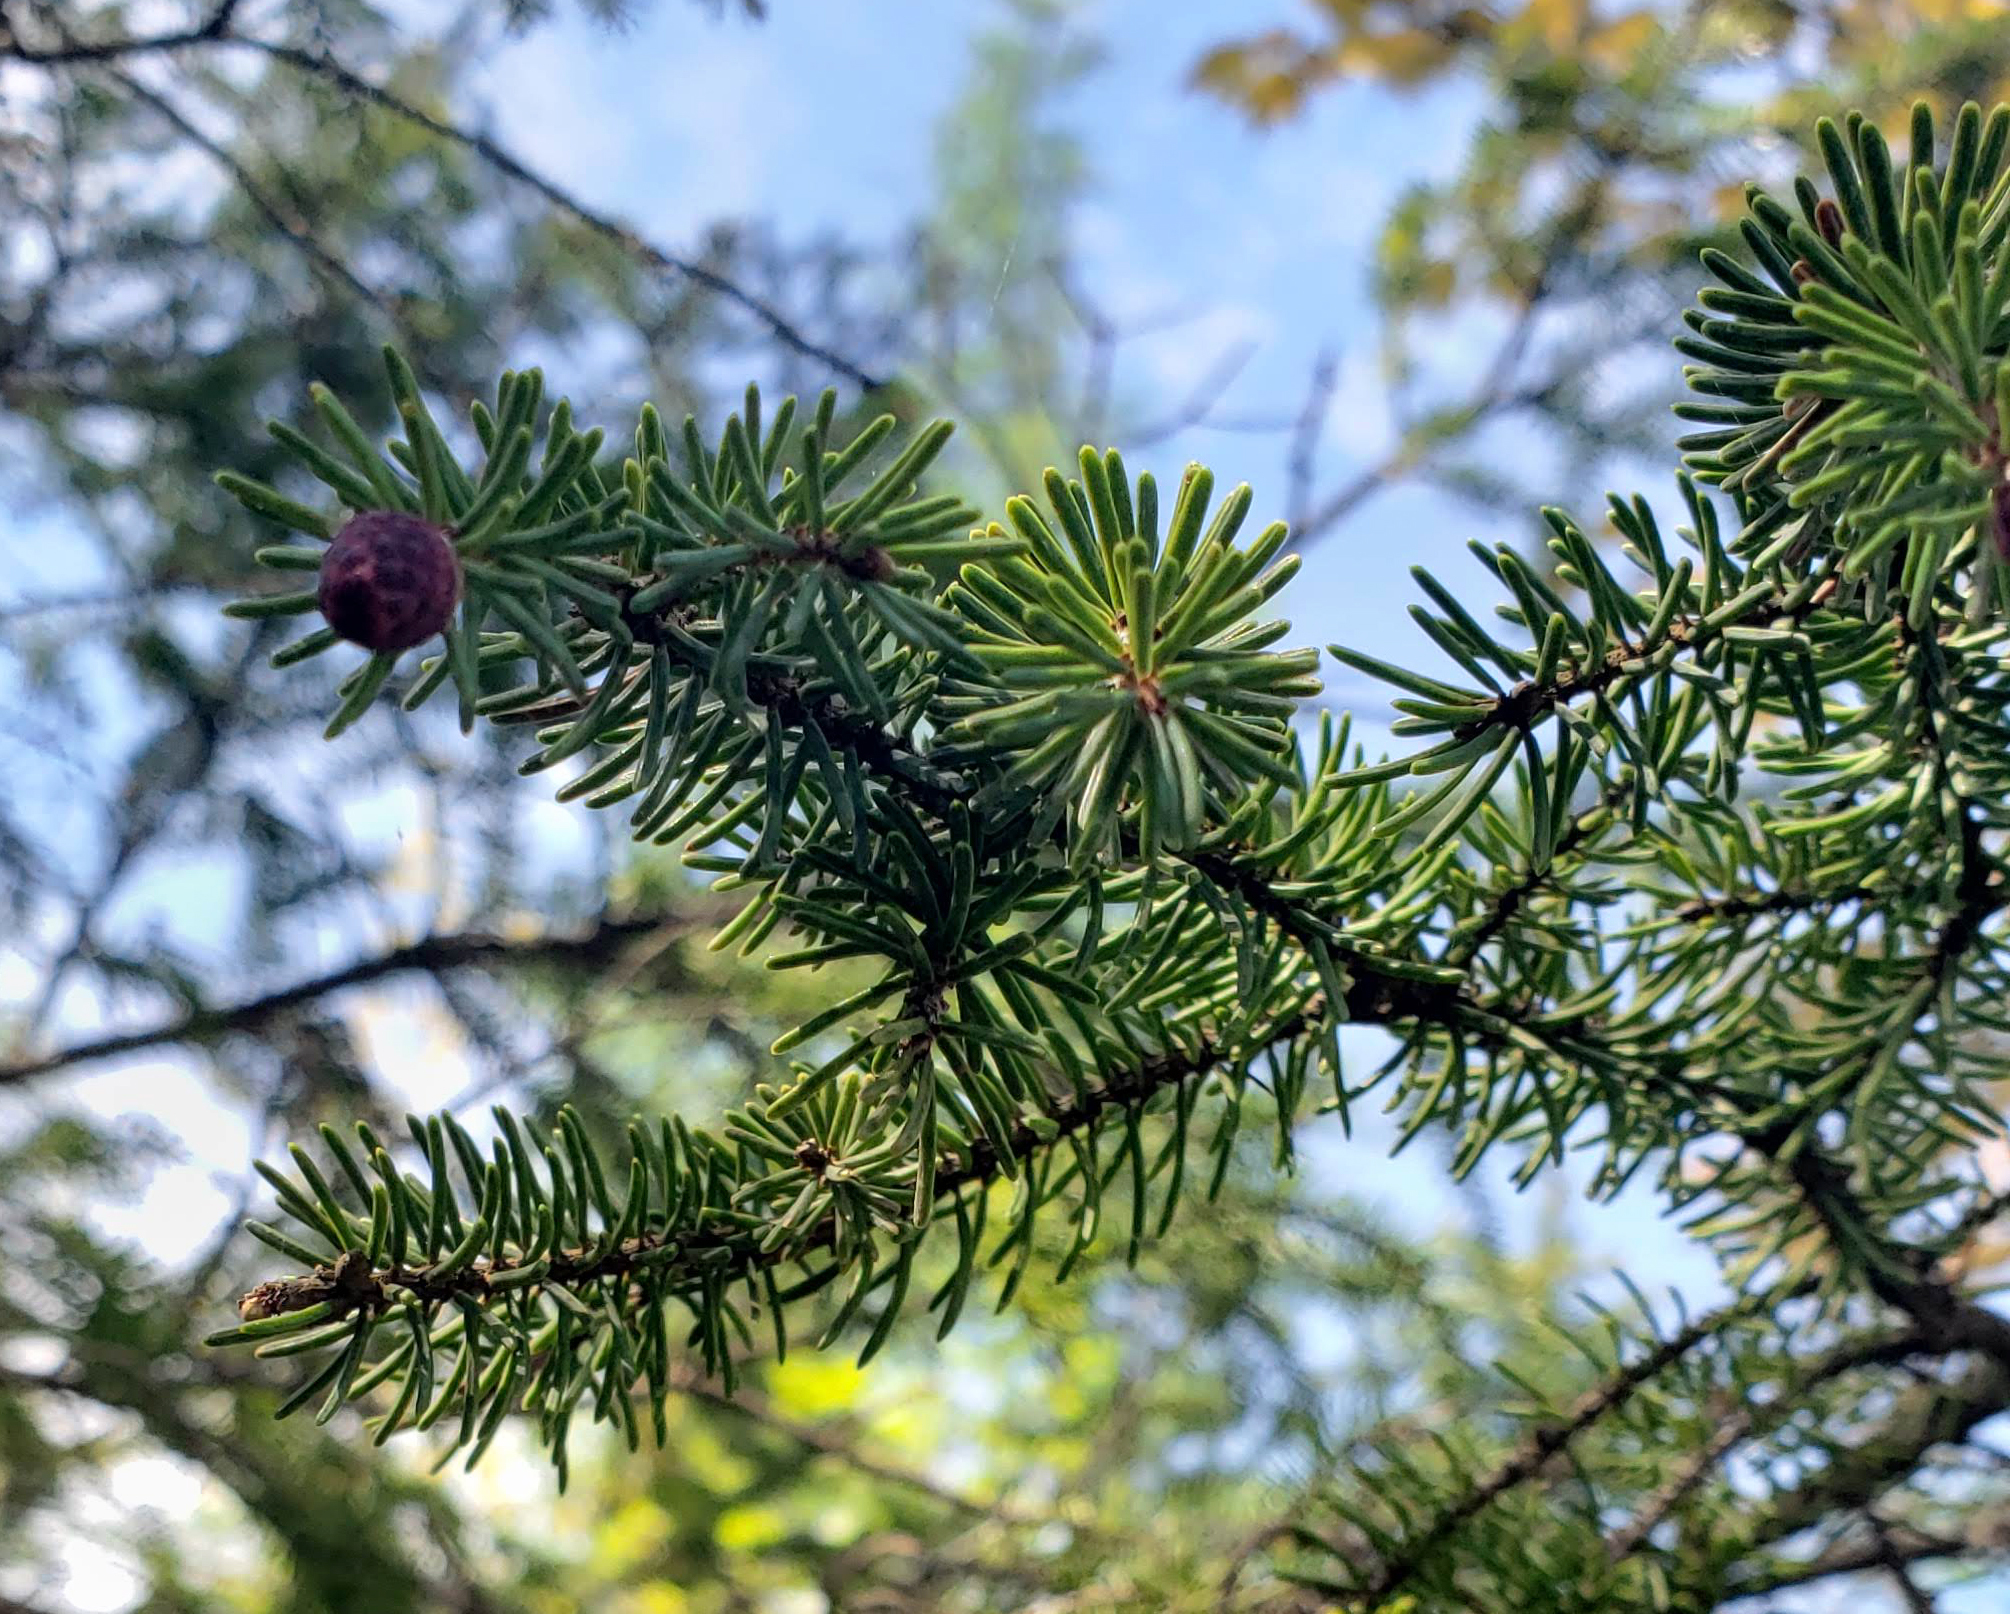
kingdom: Plantae
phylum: Tracheophyta
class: Pinopsida
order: Pinales
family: Pinaceae
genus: Picea
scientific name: Picea mariana
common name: Black spruce
